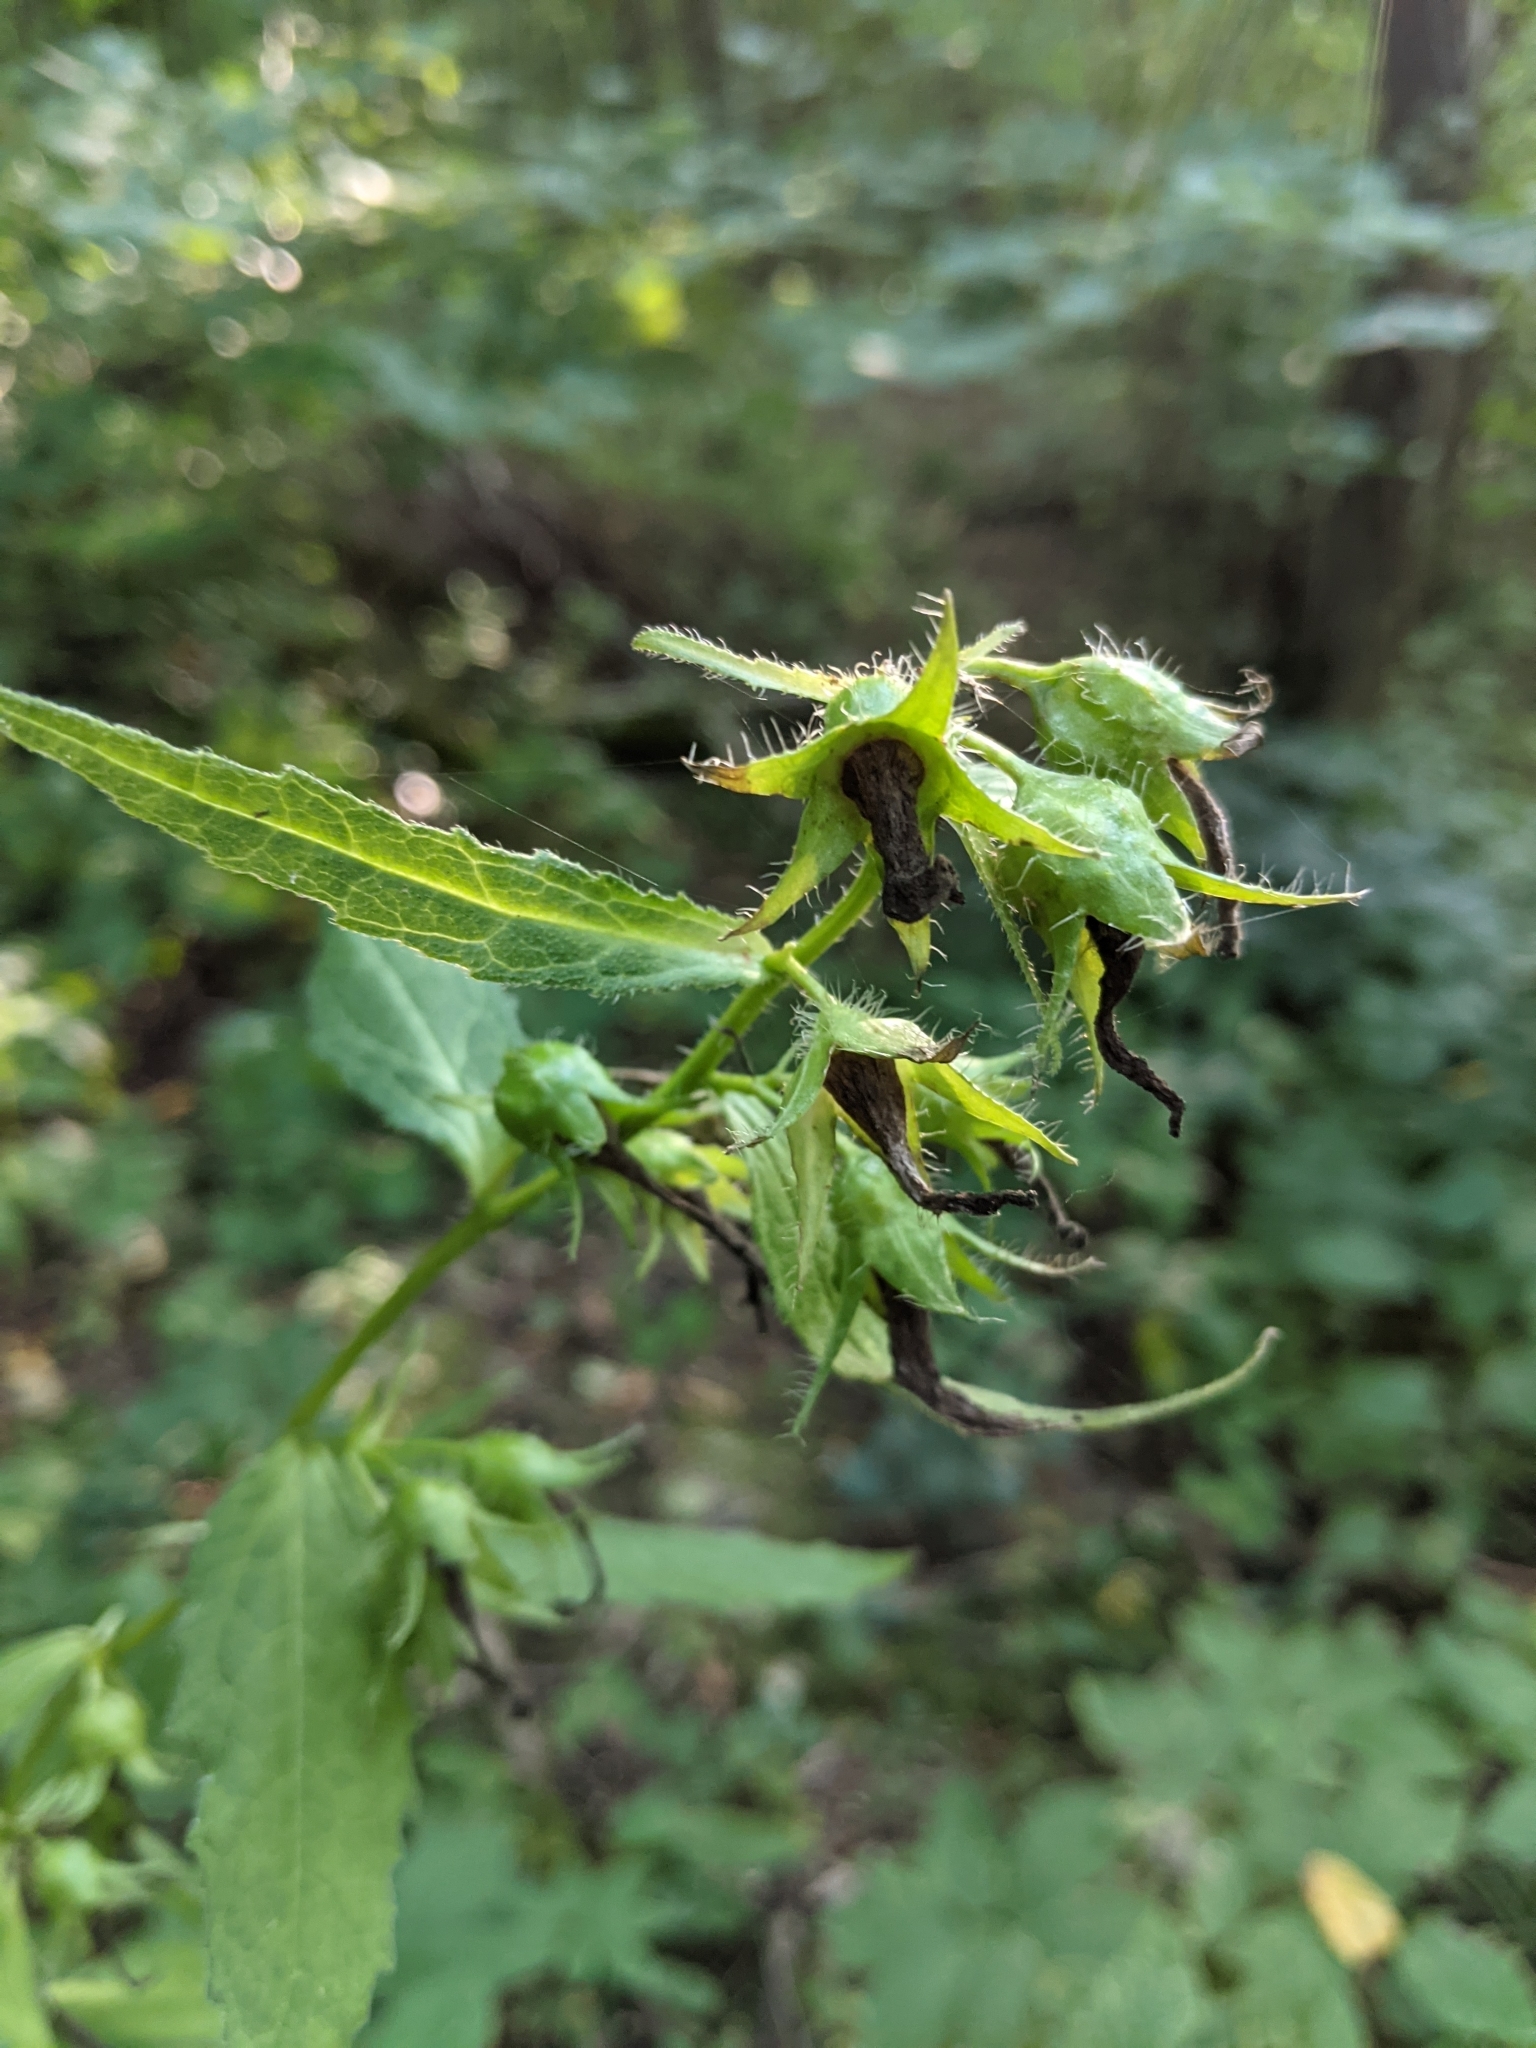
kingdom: Plantae
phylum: Tracheophyta
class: Magnoliopsida
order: Asterales
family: Campanulaceae
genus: Campanula
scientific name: Campanula trachelium
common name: Nettle-leaved bellflower
